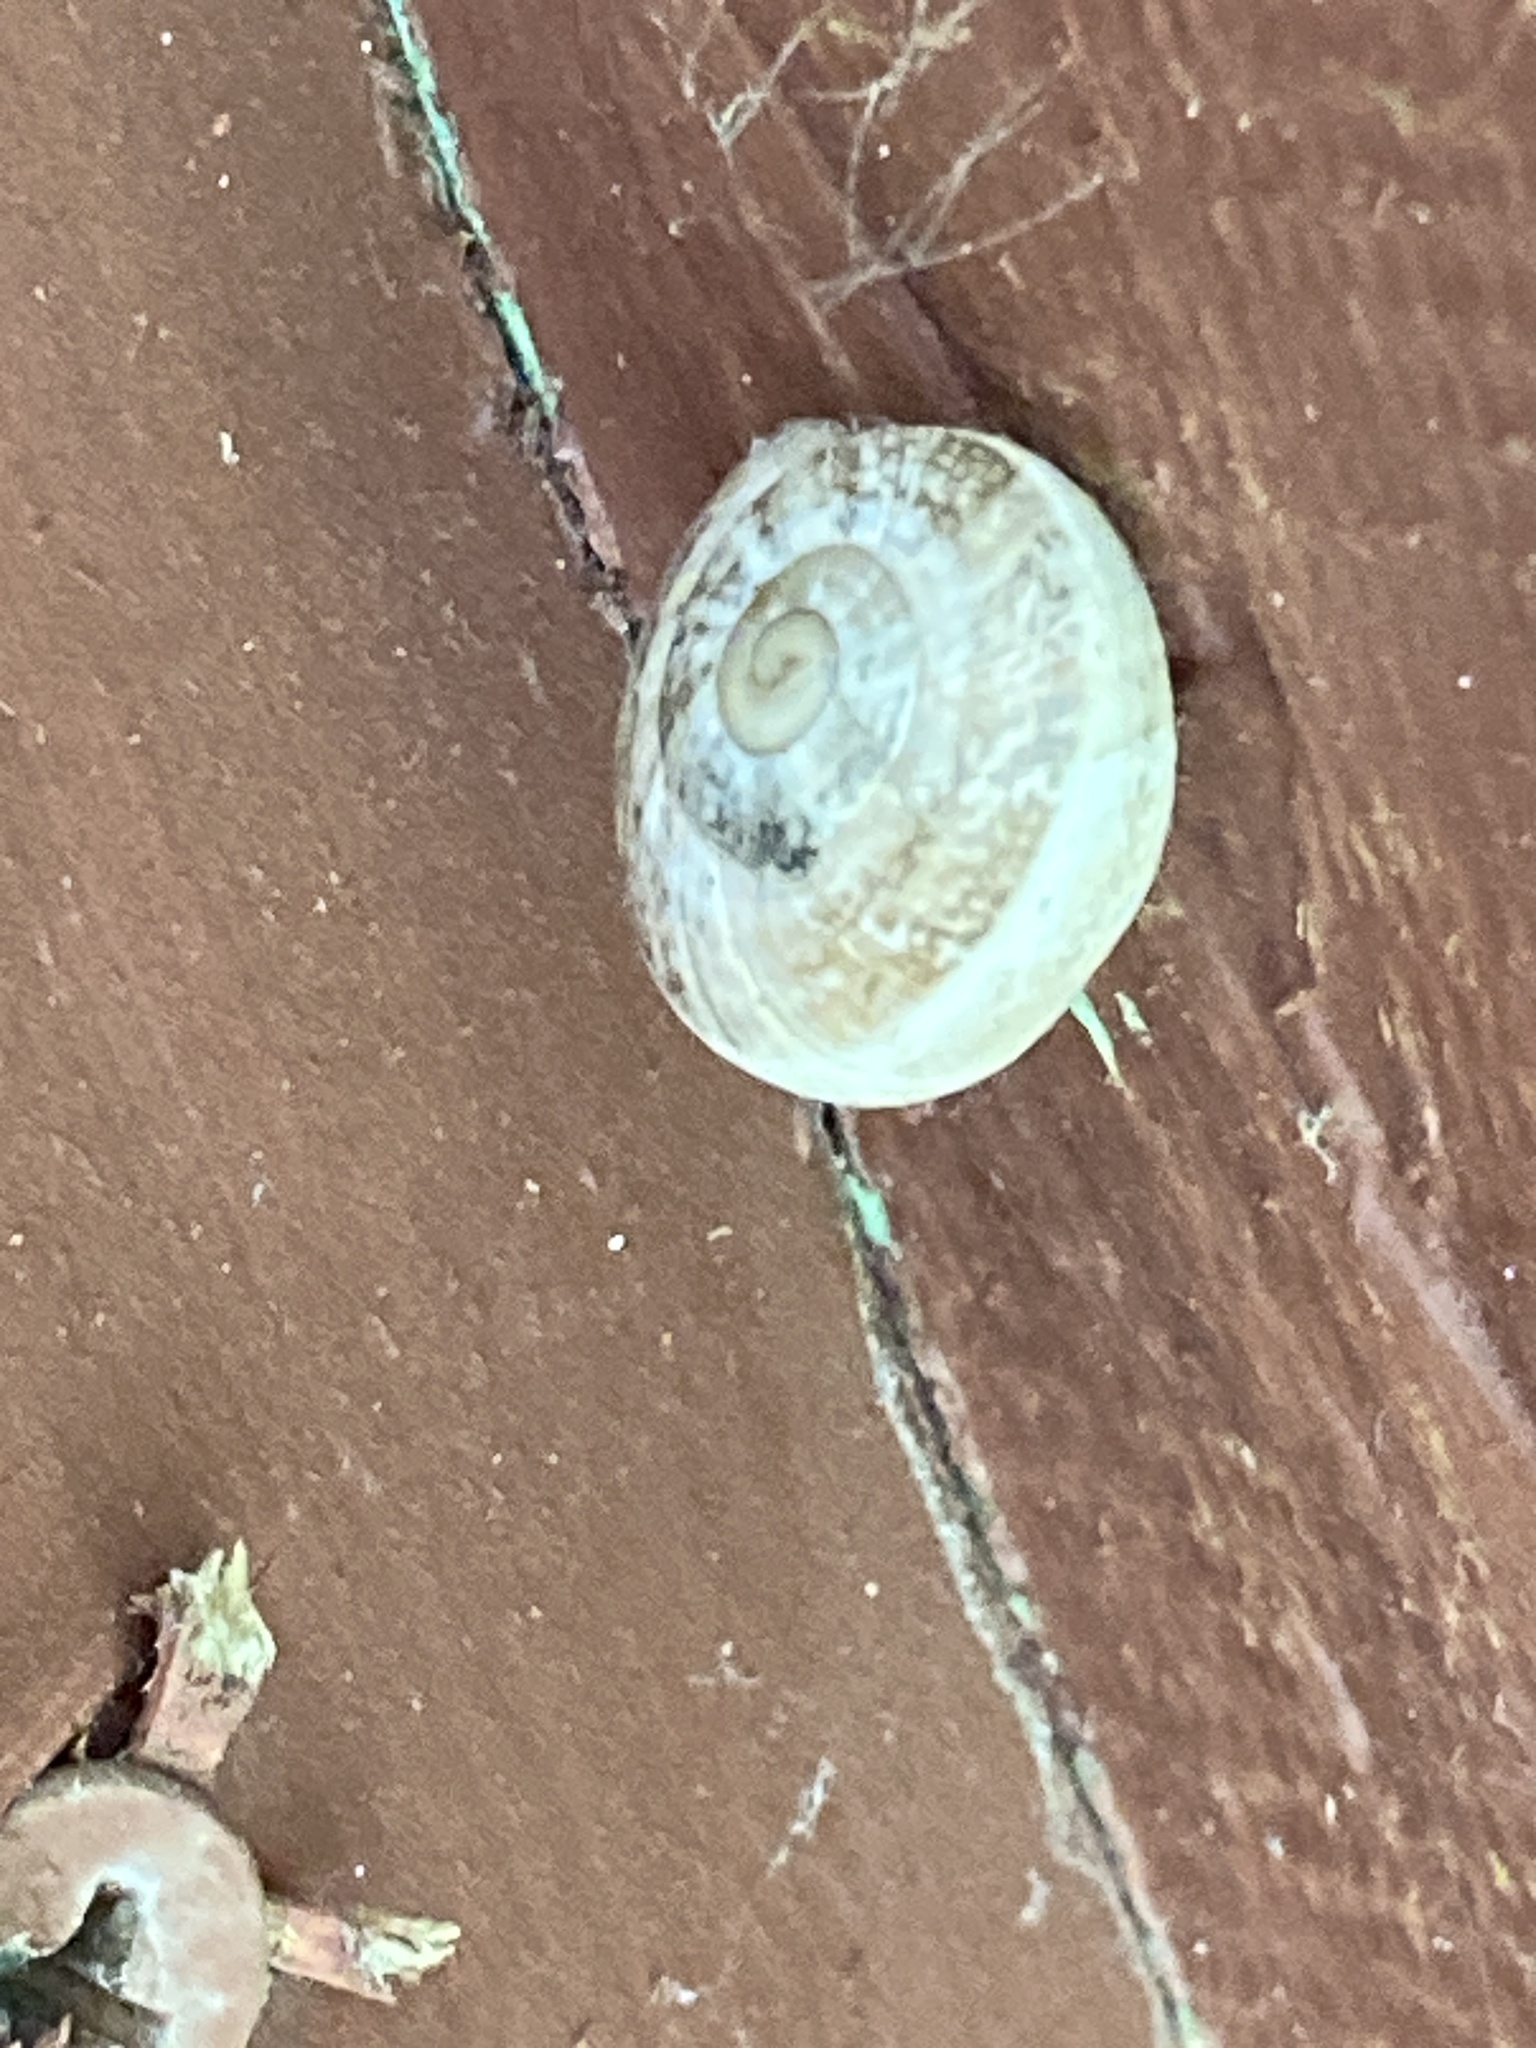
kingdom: Animalia
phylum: Mollusca
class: Gastropoda
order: Stylommatophora
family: Helicidae
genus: Otala
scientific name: Otala lactea
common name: Milk snail
